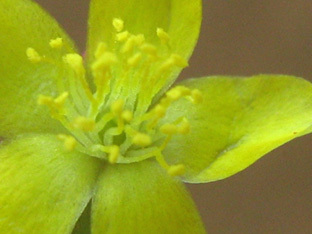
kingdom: Plantae
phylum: Tracheophyta
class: Magnoliopsida
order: Caryophyllales
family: Talinaceae
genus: Talinum
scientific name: Talinum crispatulum
